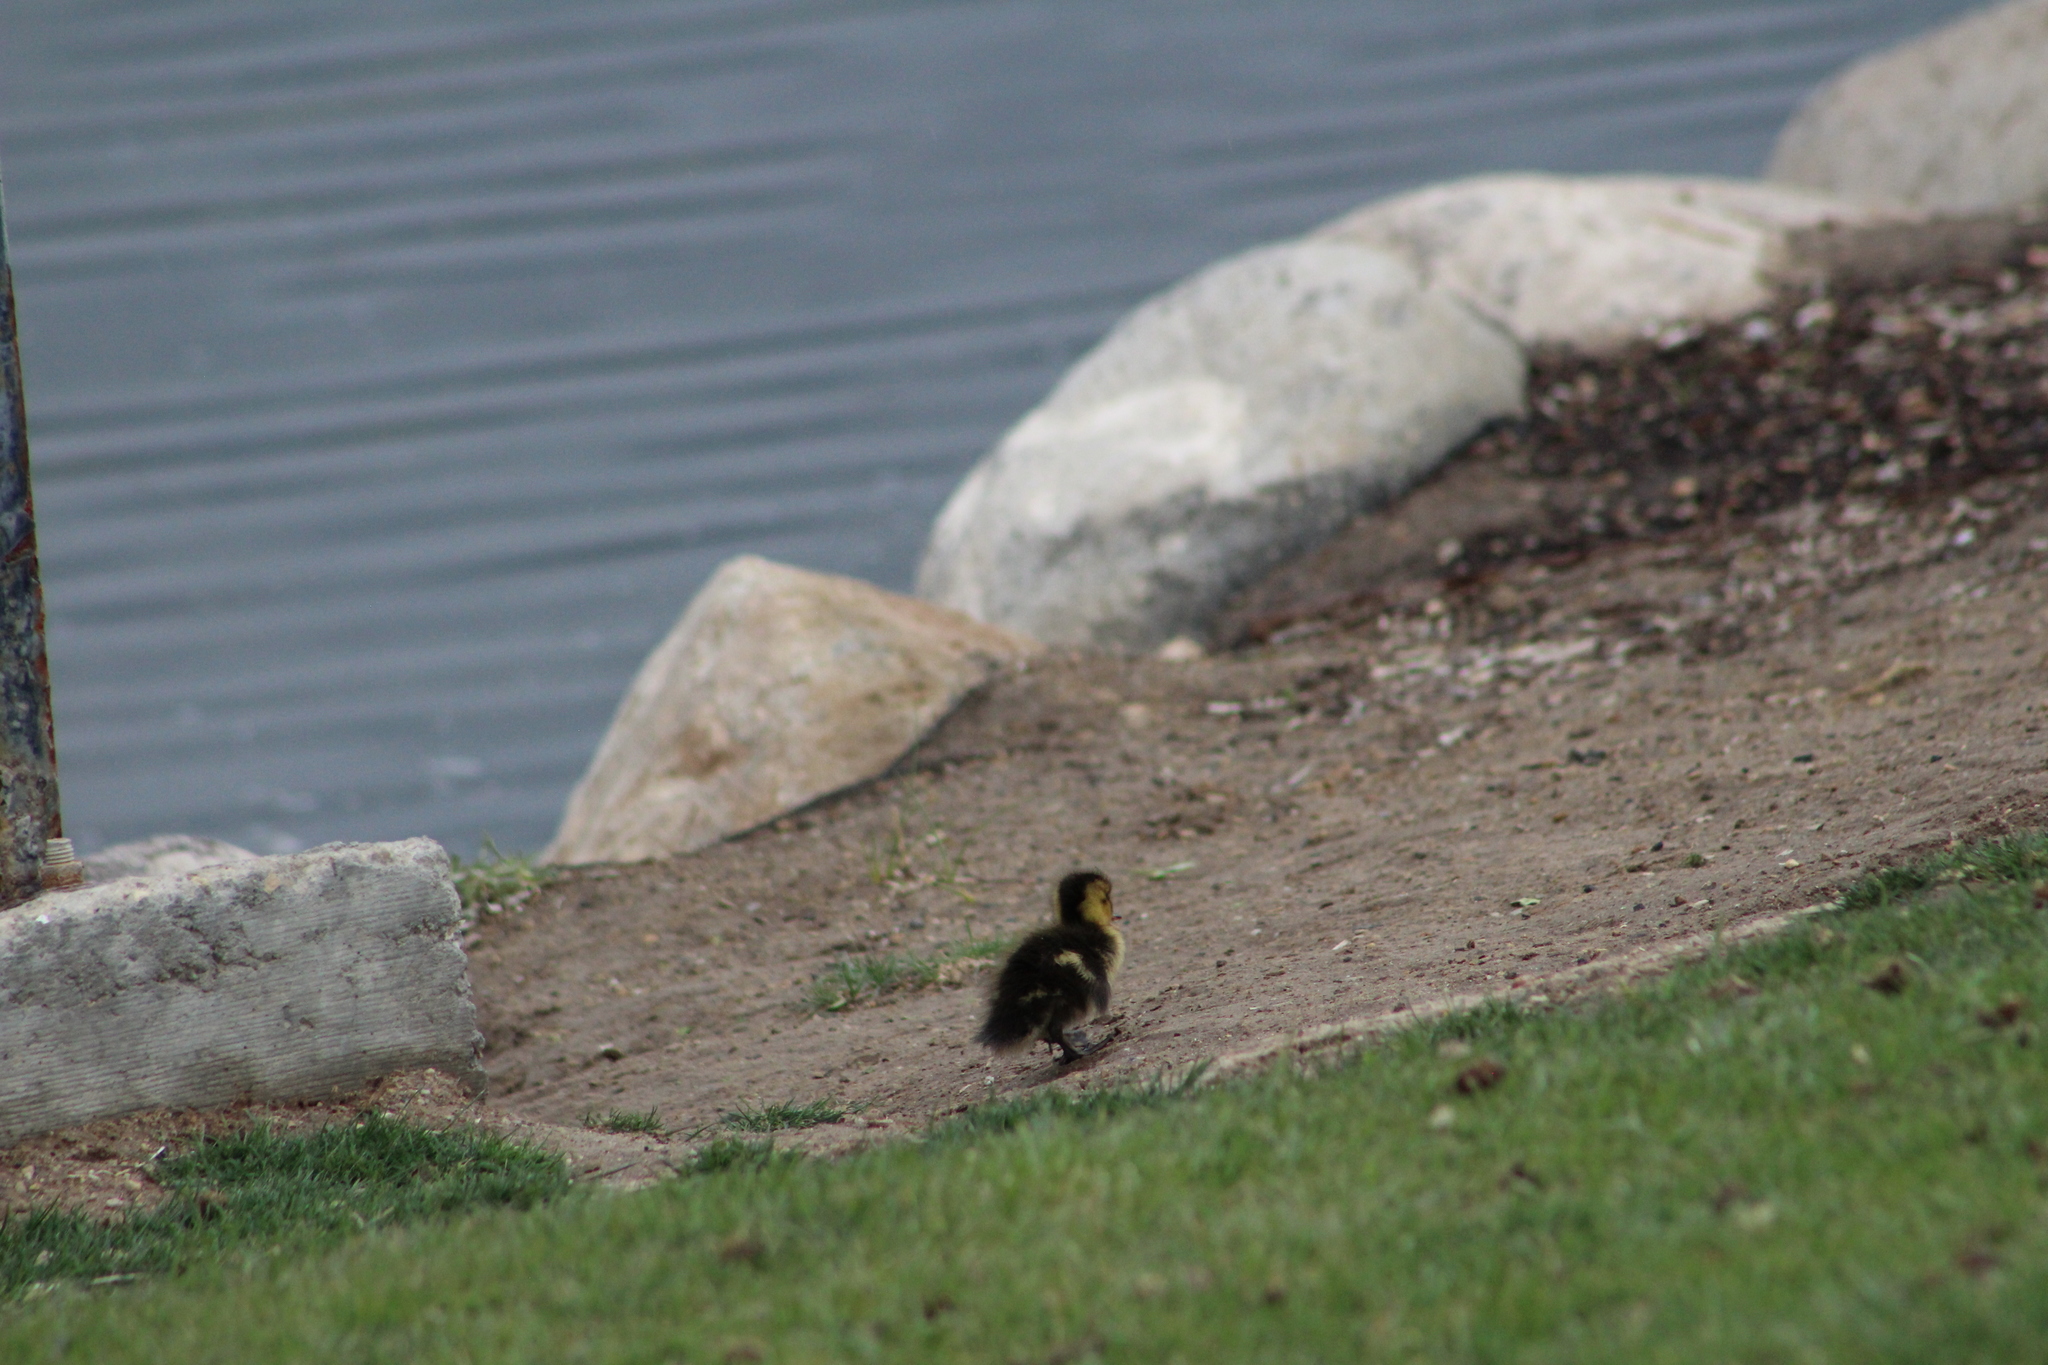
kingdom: Animalia
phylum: Chordata
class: Aves
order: Anseriformes
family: Anatidae
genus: Anas
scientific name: Anas platyrhynchos
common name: Mallard
